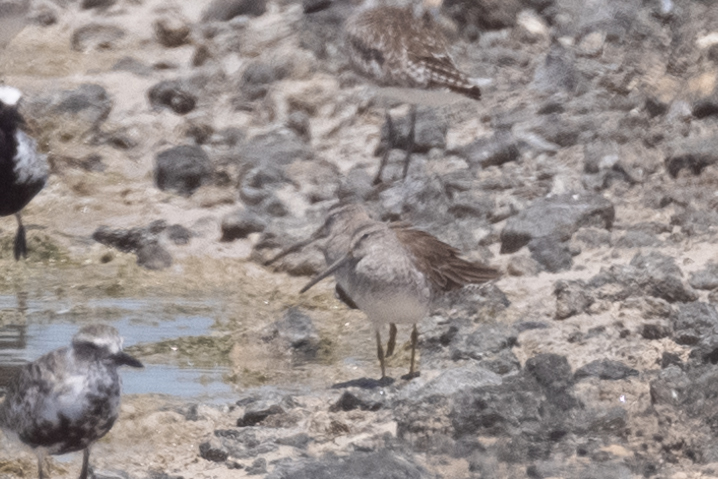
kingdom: Animalia
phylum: Chordata
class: Aves
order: Charadriiformes
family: Scolopacidae
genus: Limnodromus
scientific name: Limnodromus griseus
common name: Short-billed dowitcher
